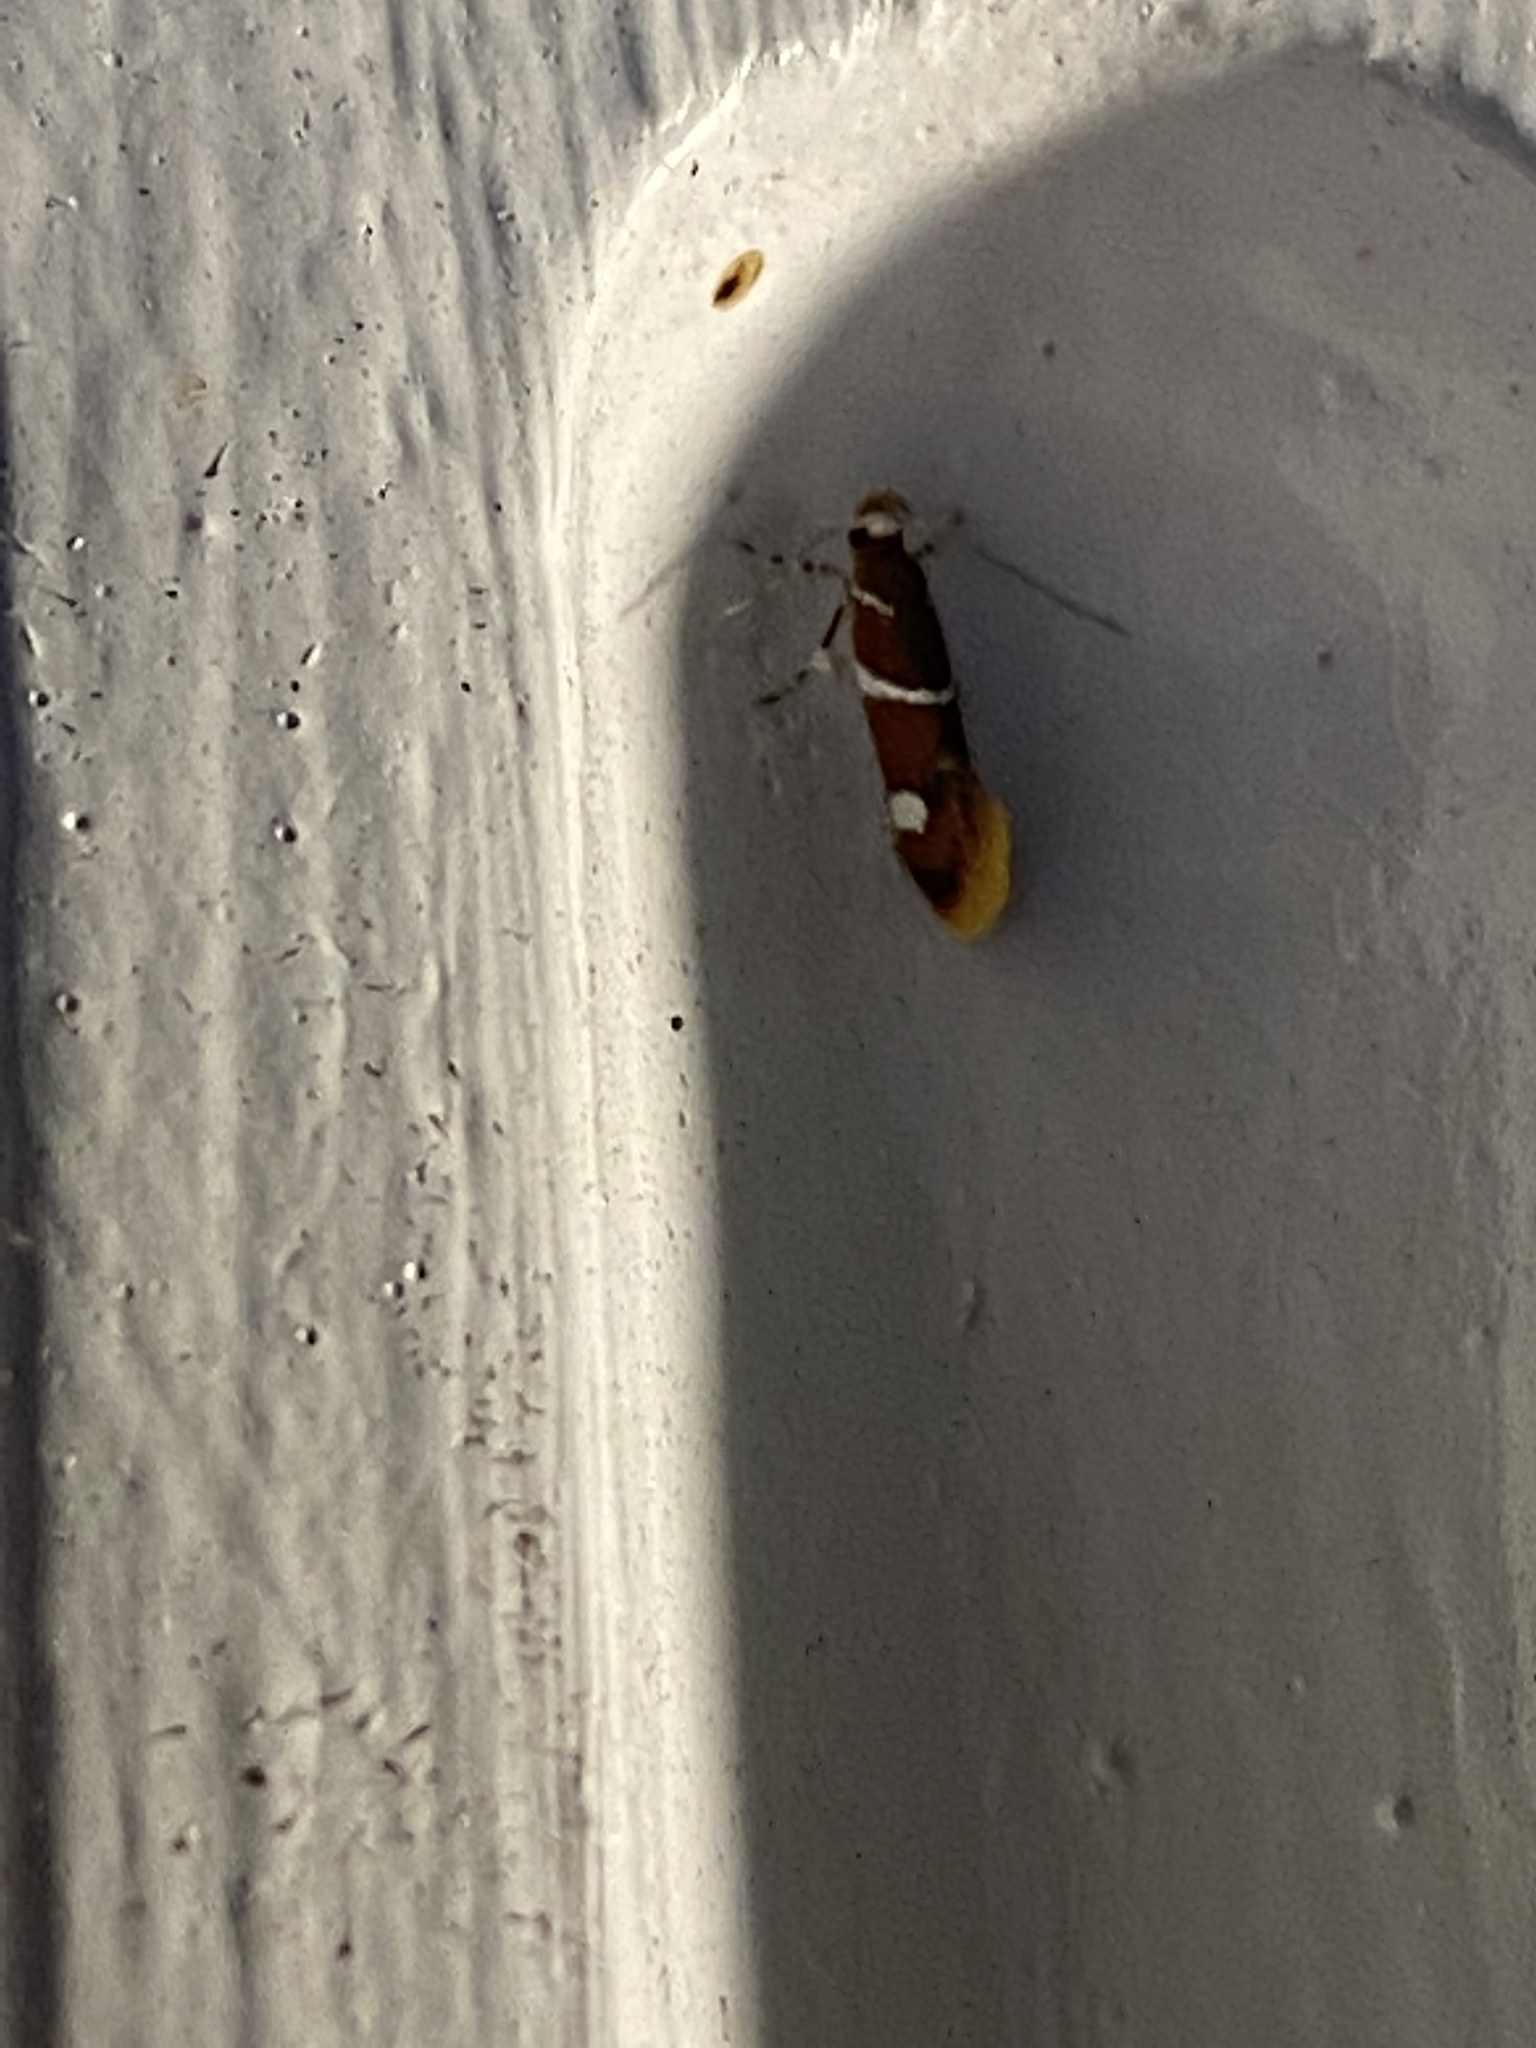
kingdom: Animalia
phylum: Arthropoda
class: Insecta
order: Lepidoptera
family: Oecophoridae
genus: Promalactis
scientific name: Promalactis suzukiella
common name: Moth
